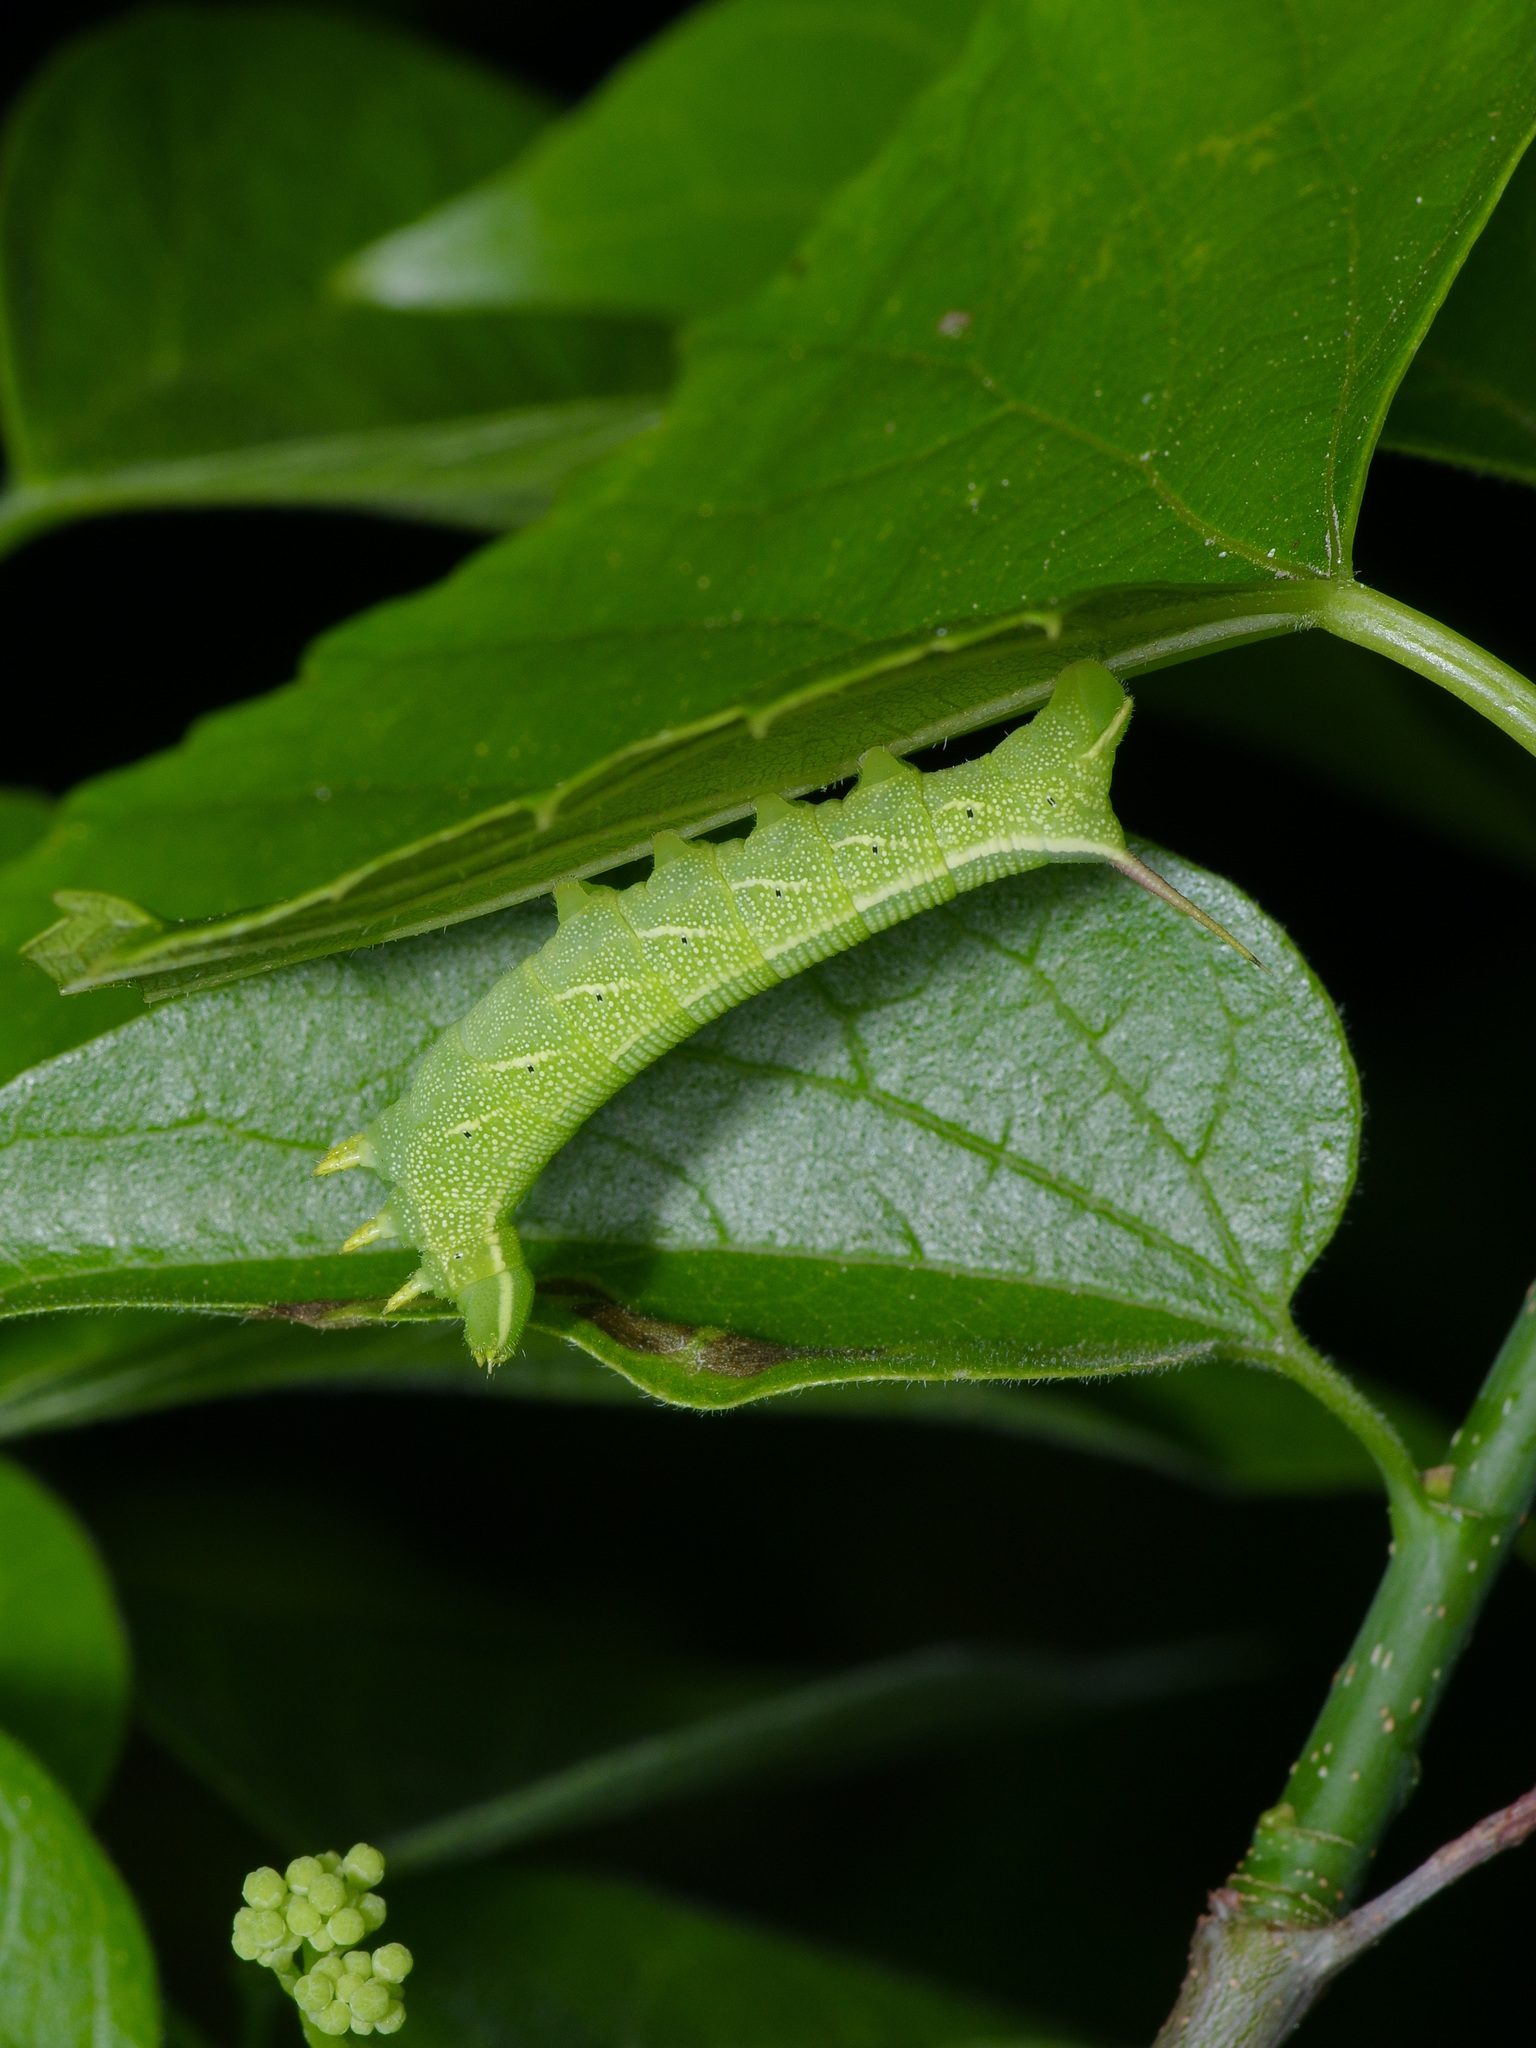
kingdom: Animalia
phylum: Arthropoda
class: Insecta
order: Lepidoptera
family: Sphingidae
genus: Deidamia
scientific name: Deidamia inscriptum
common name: Lettered sphinx
